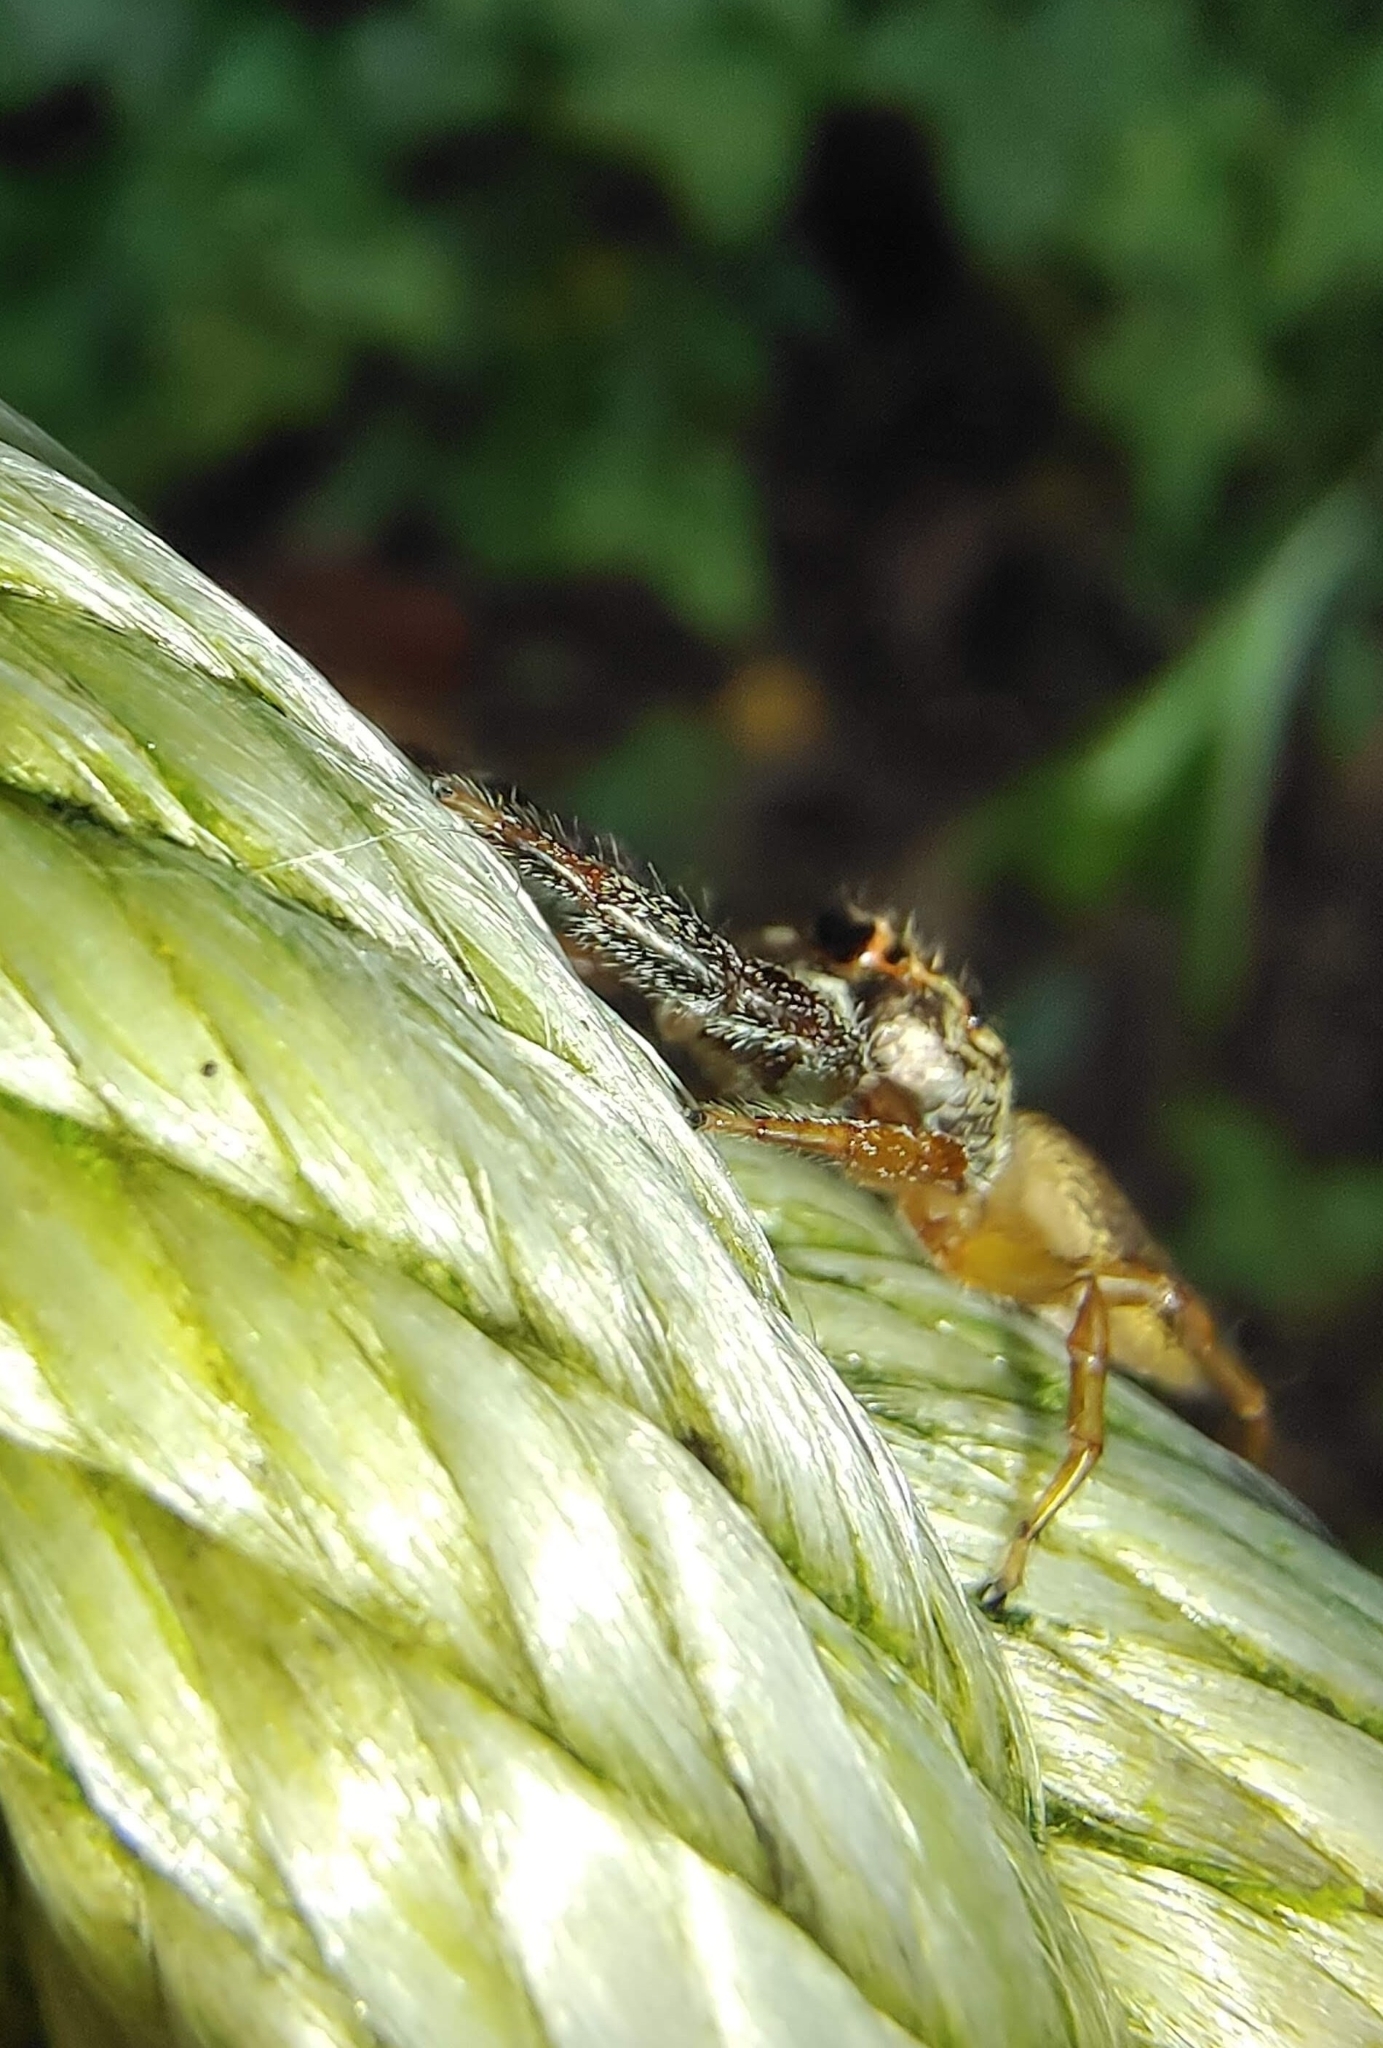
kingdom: Animalia
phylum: Arthropoda
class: Arachnida
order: Araneae
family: Salticidae
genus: Bavia
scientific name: Bavia sexpunctata
